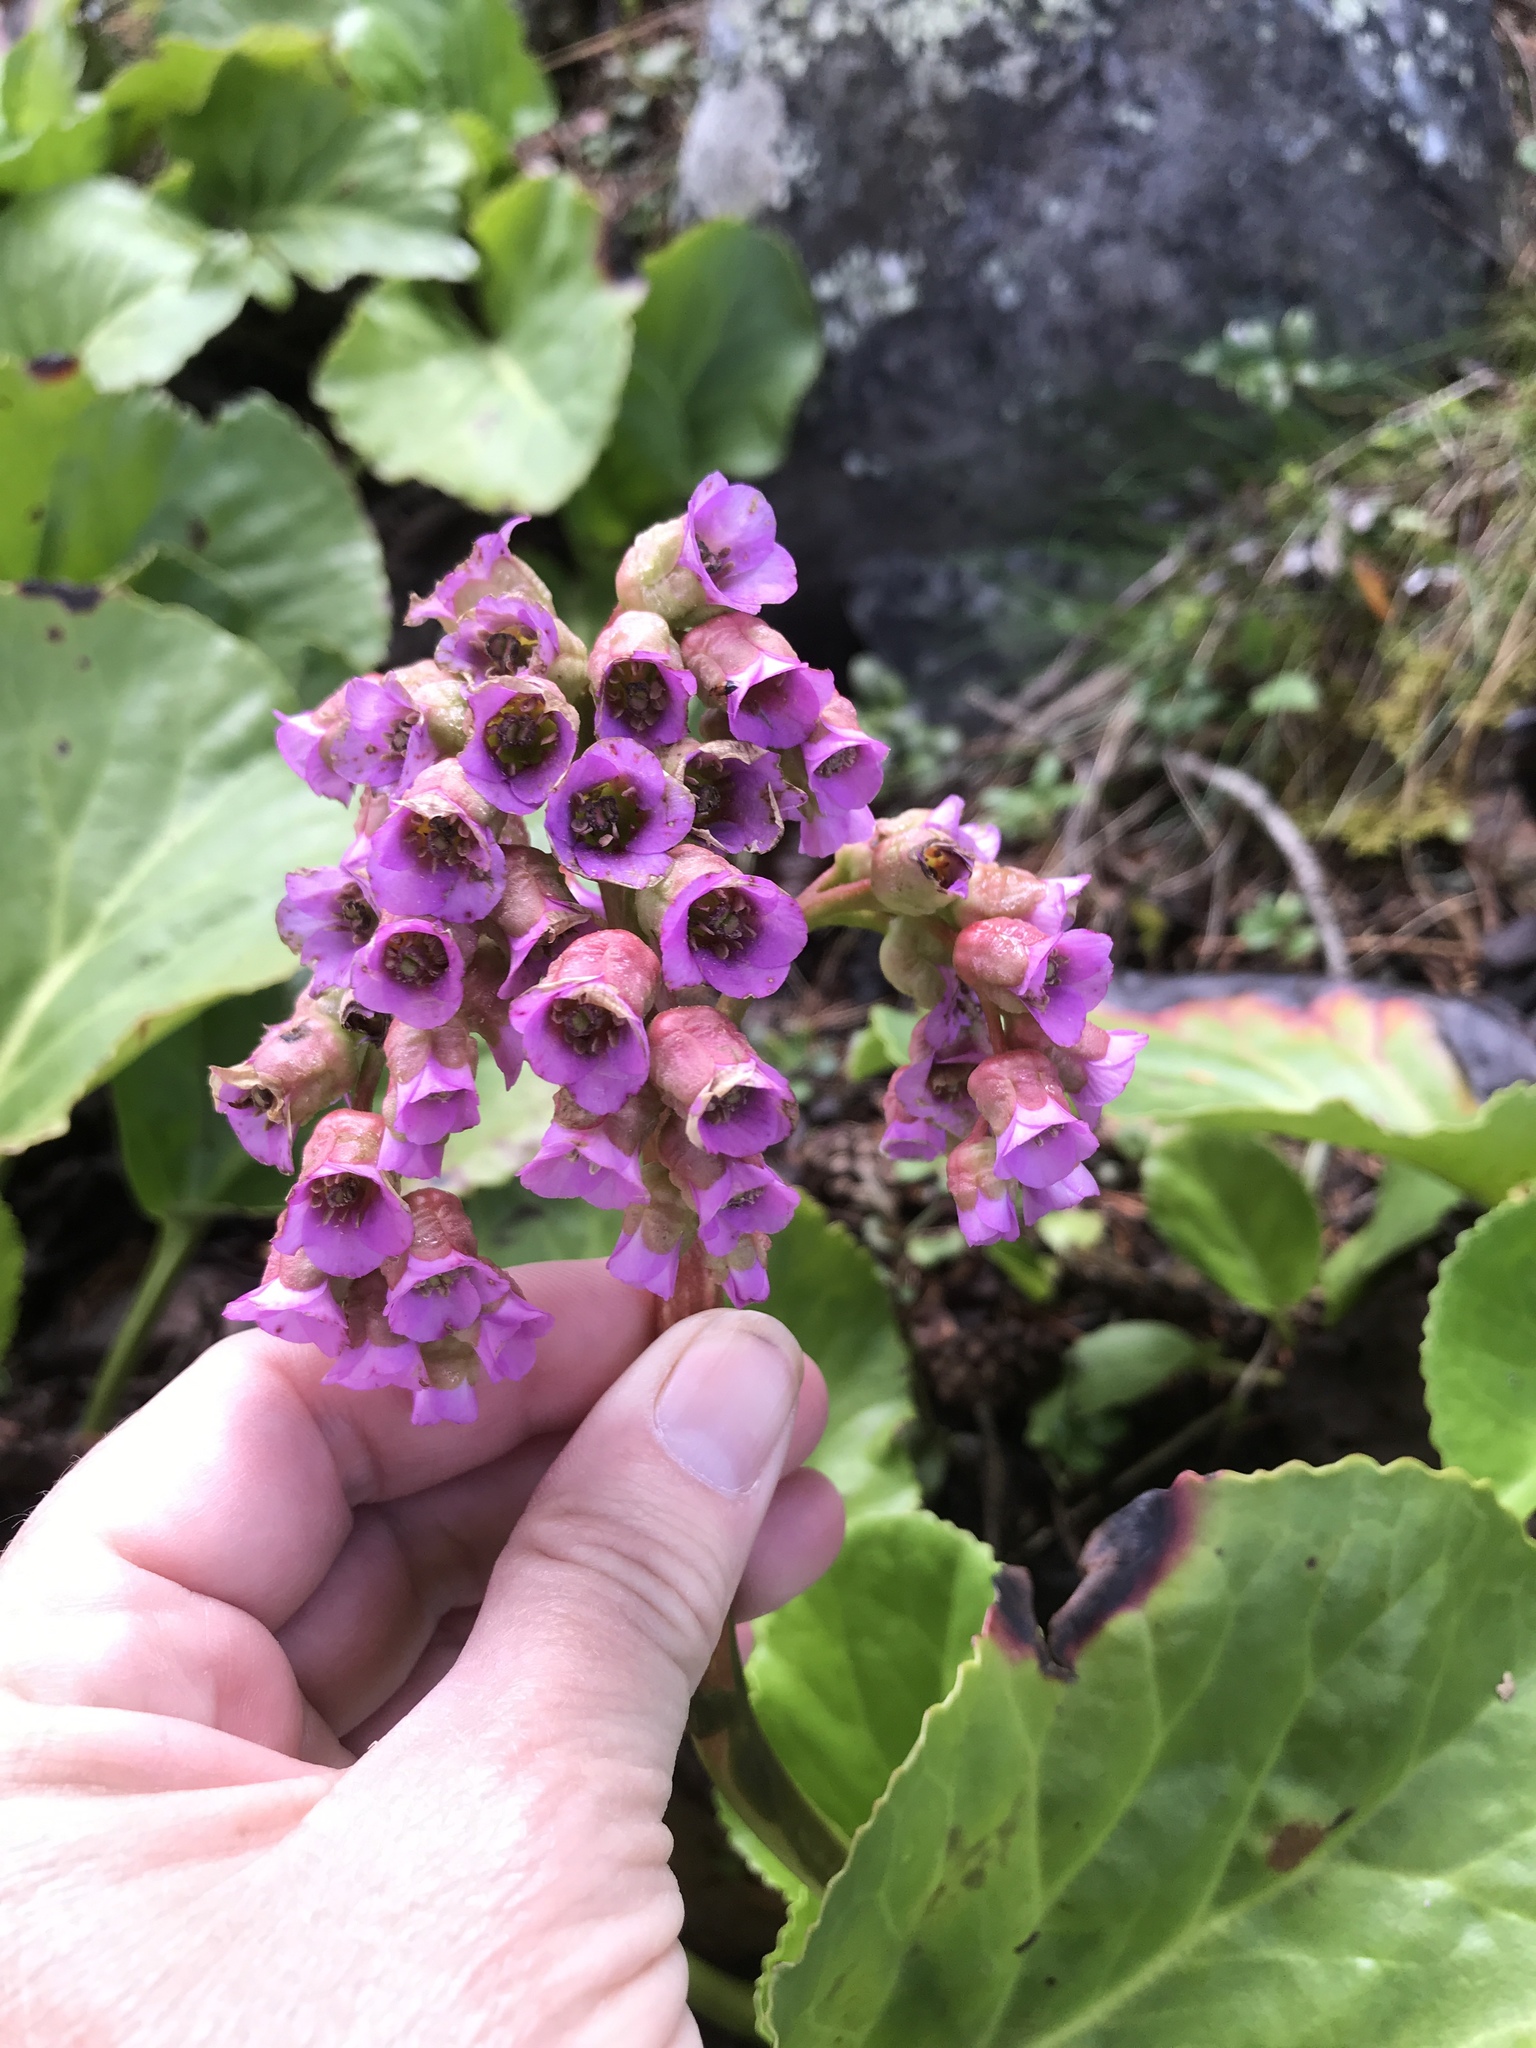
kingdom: Plantae
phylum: Tracheophyta
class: Magnoliopsida
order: Saxifragales
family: Saxifragaceae
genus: Bergenia
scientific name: Bergenia crassifolia
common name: Elephant-ears
